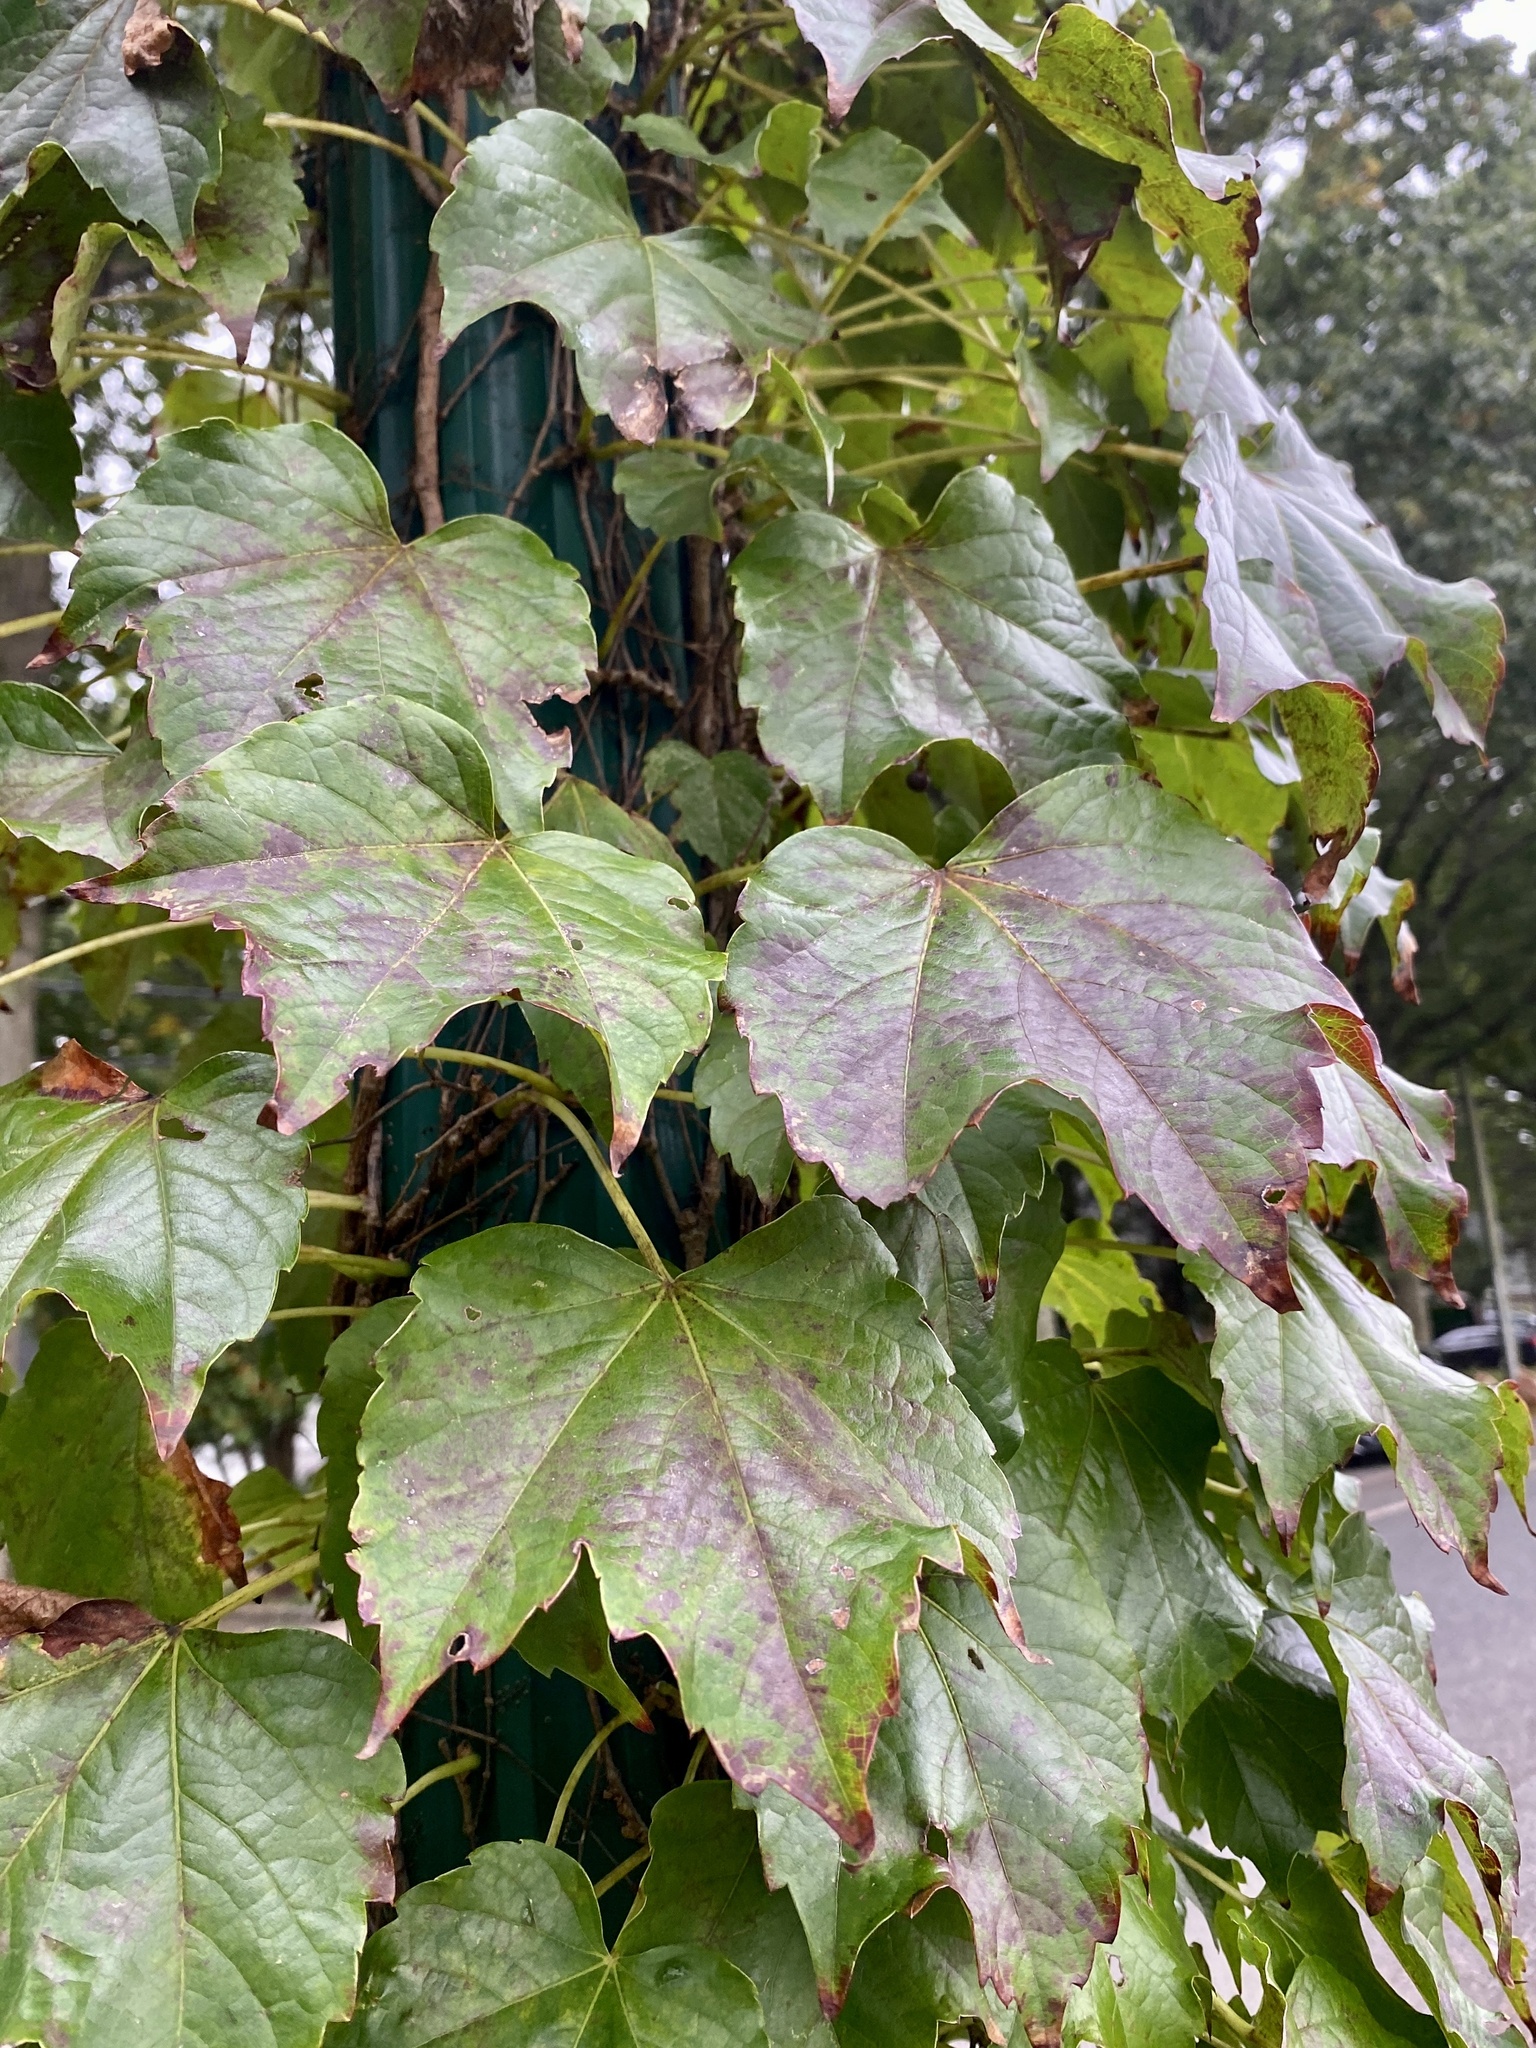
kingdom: Plantae
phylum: Tracheophyta
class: Magnoliopsida
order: Vitales
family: Vitaceae
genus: Parthenocissus
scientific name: Parthenocissus tricuspidata
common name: Boston ivy
